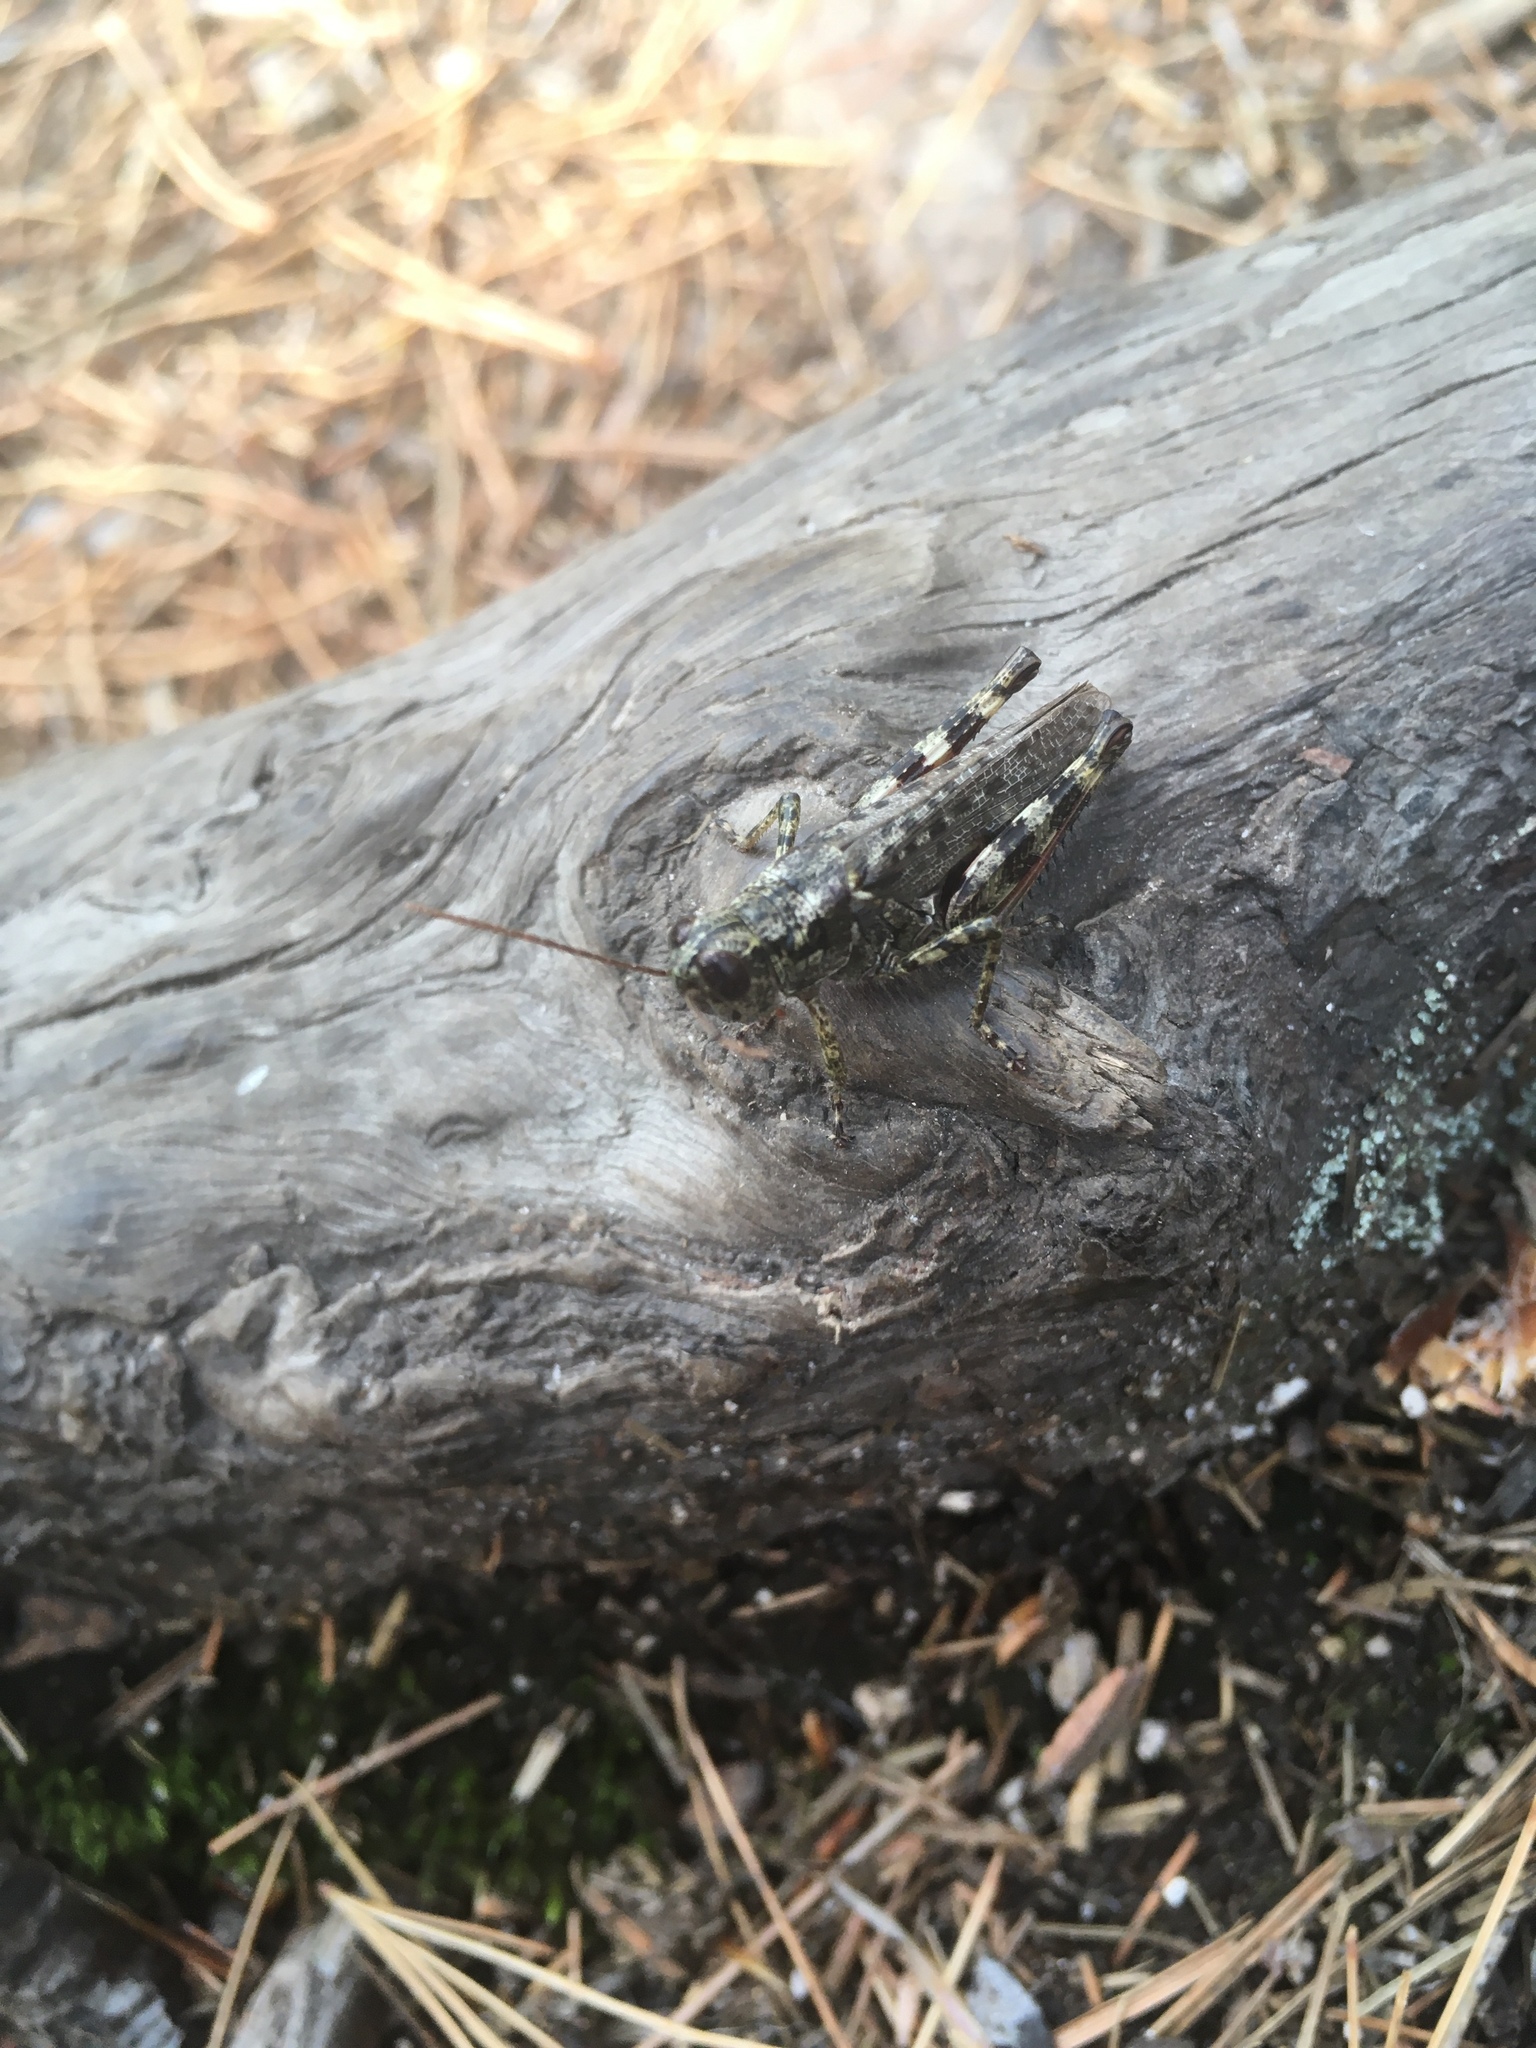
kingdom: Animalia
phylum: Arthropoda
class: Insecta
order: Orthoptera
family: Acrididae
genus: Melanoplus
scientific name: Melanoplus punctulatus
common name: Pine-tree spur-throat grasshopper
